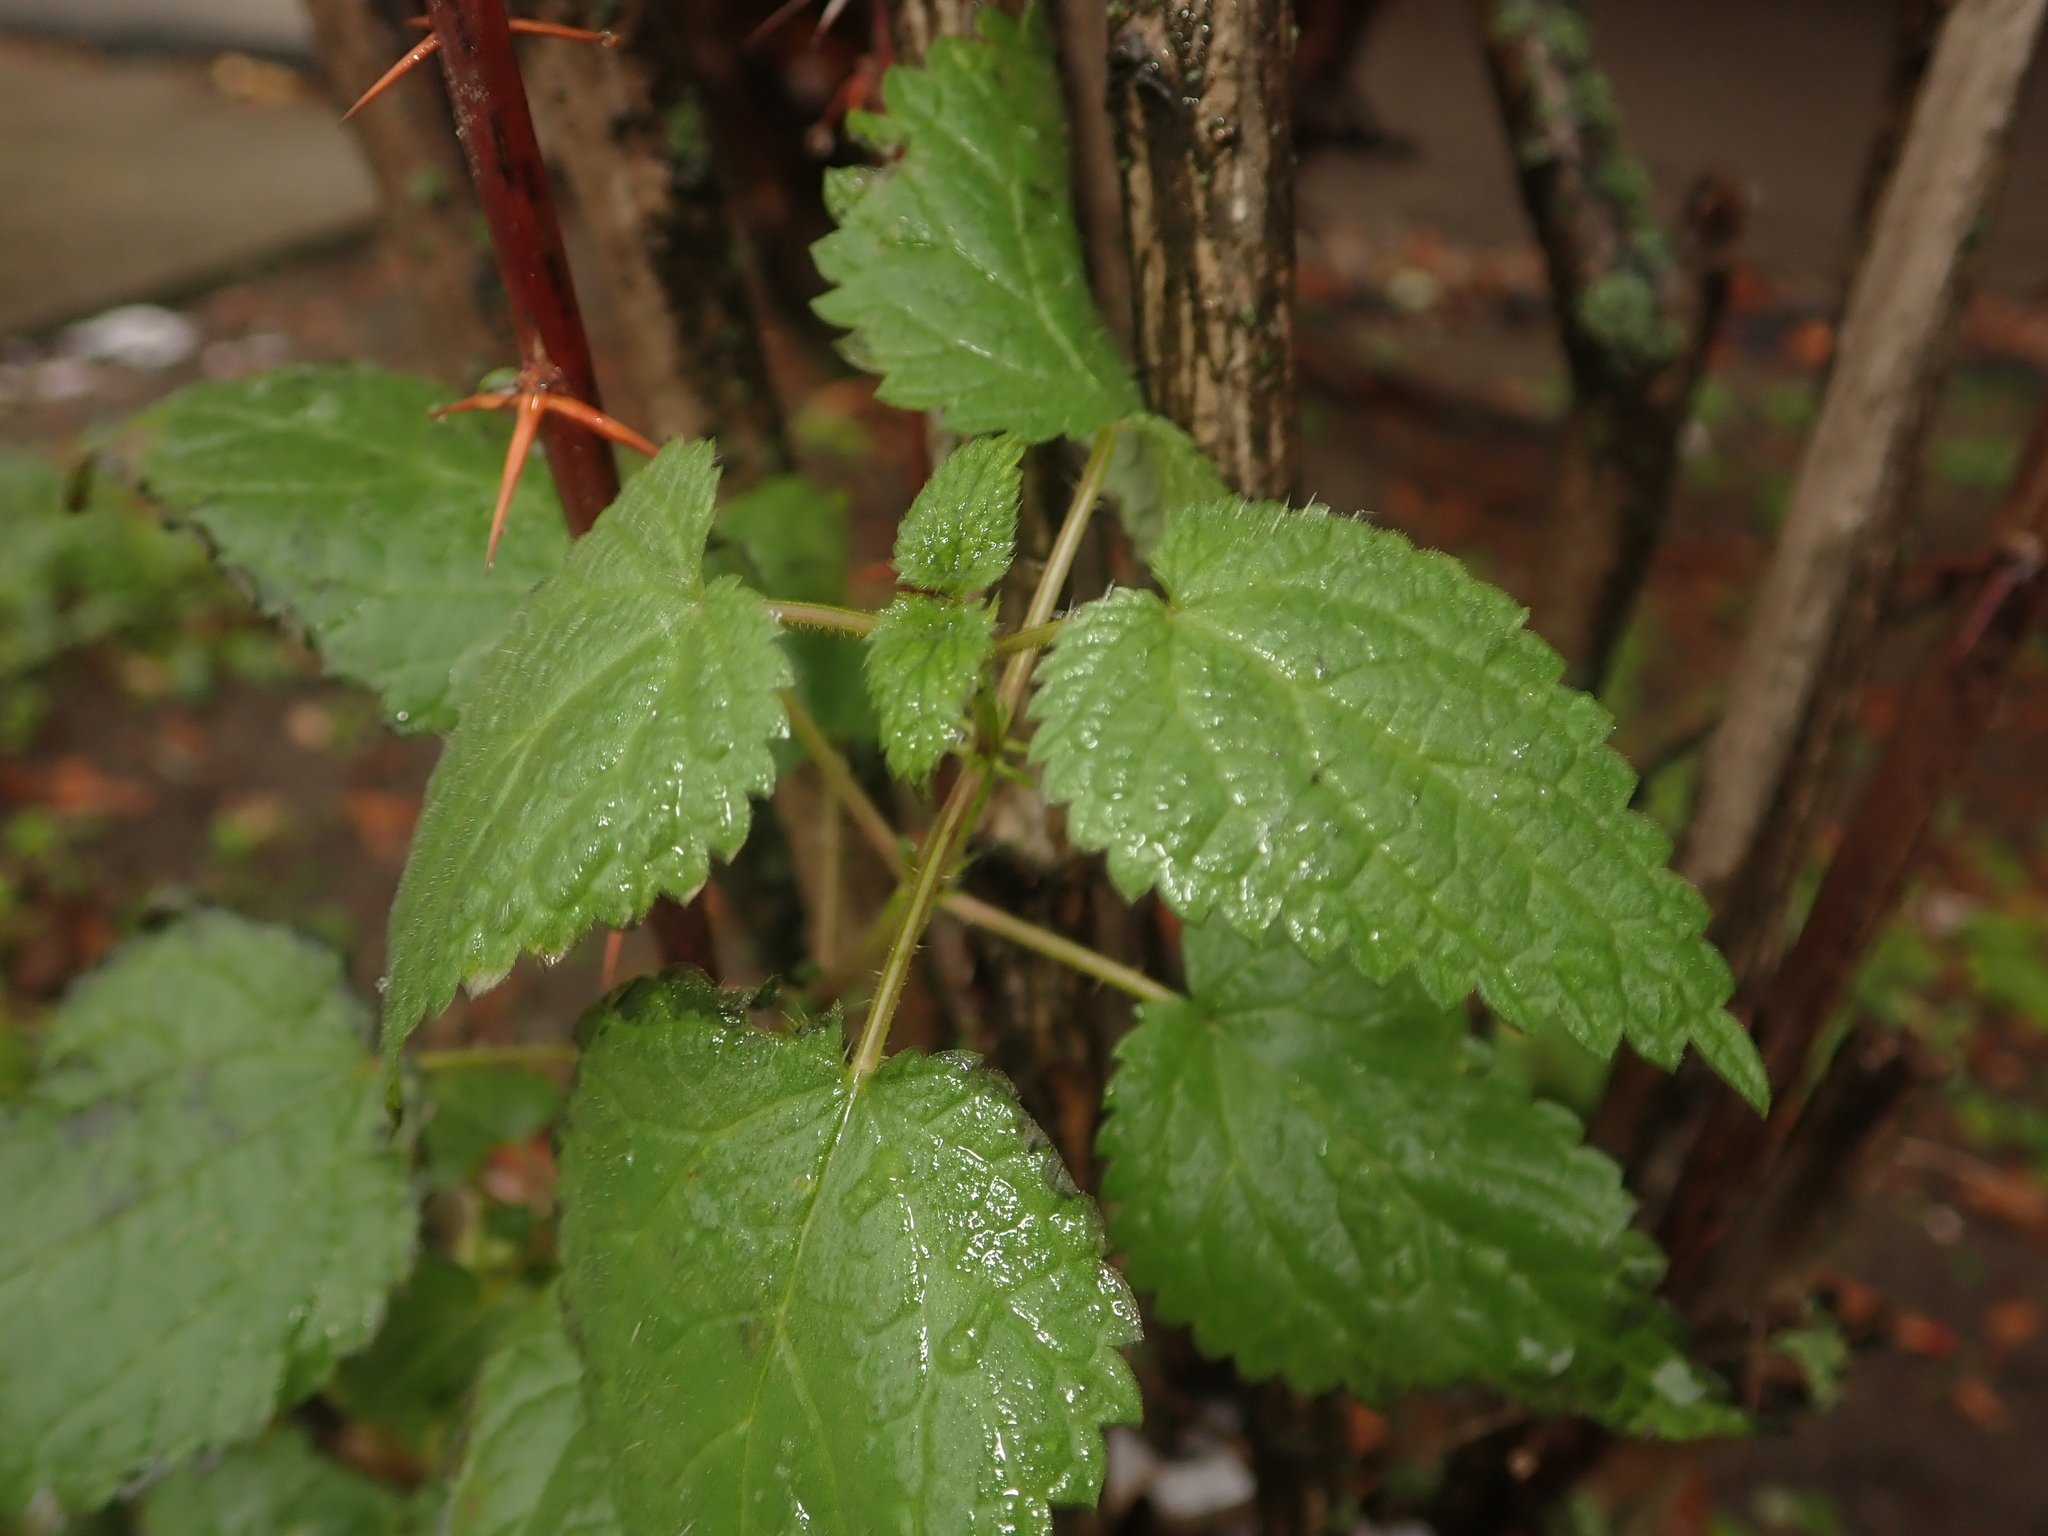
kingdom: Plantae
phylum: Tracheophyta
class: Magnoliopsida
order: Rosales
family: Urticaceae
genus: Urtica
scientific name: Urtica dioica
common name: Common nettle
